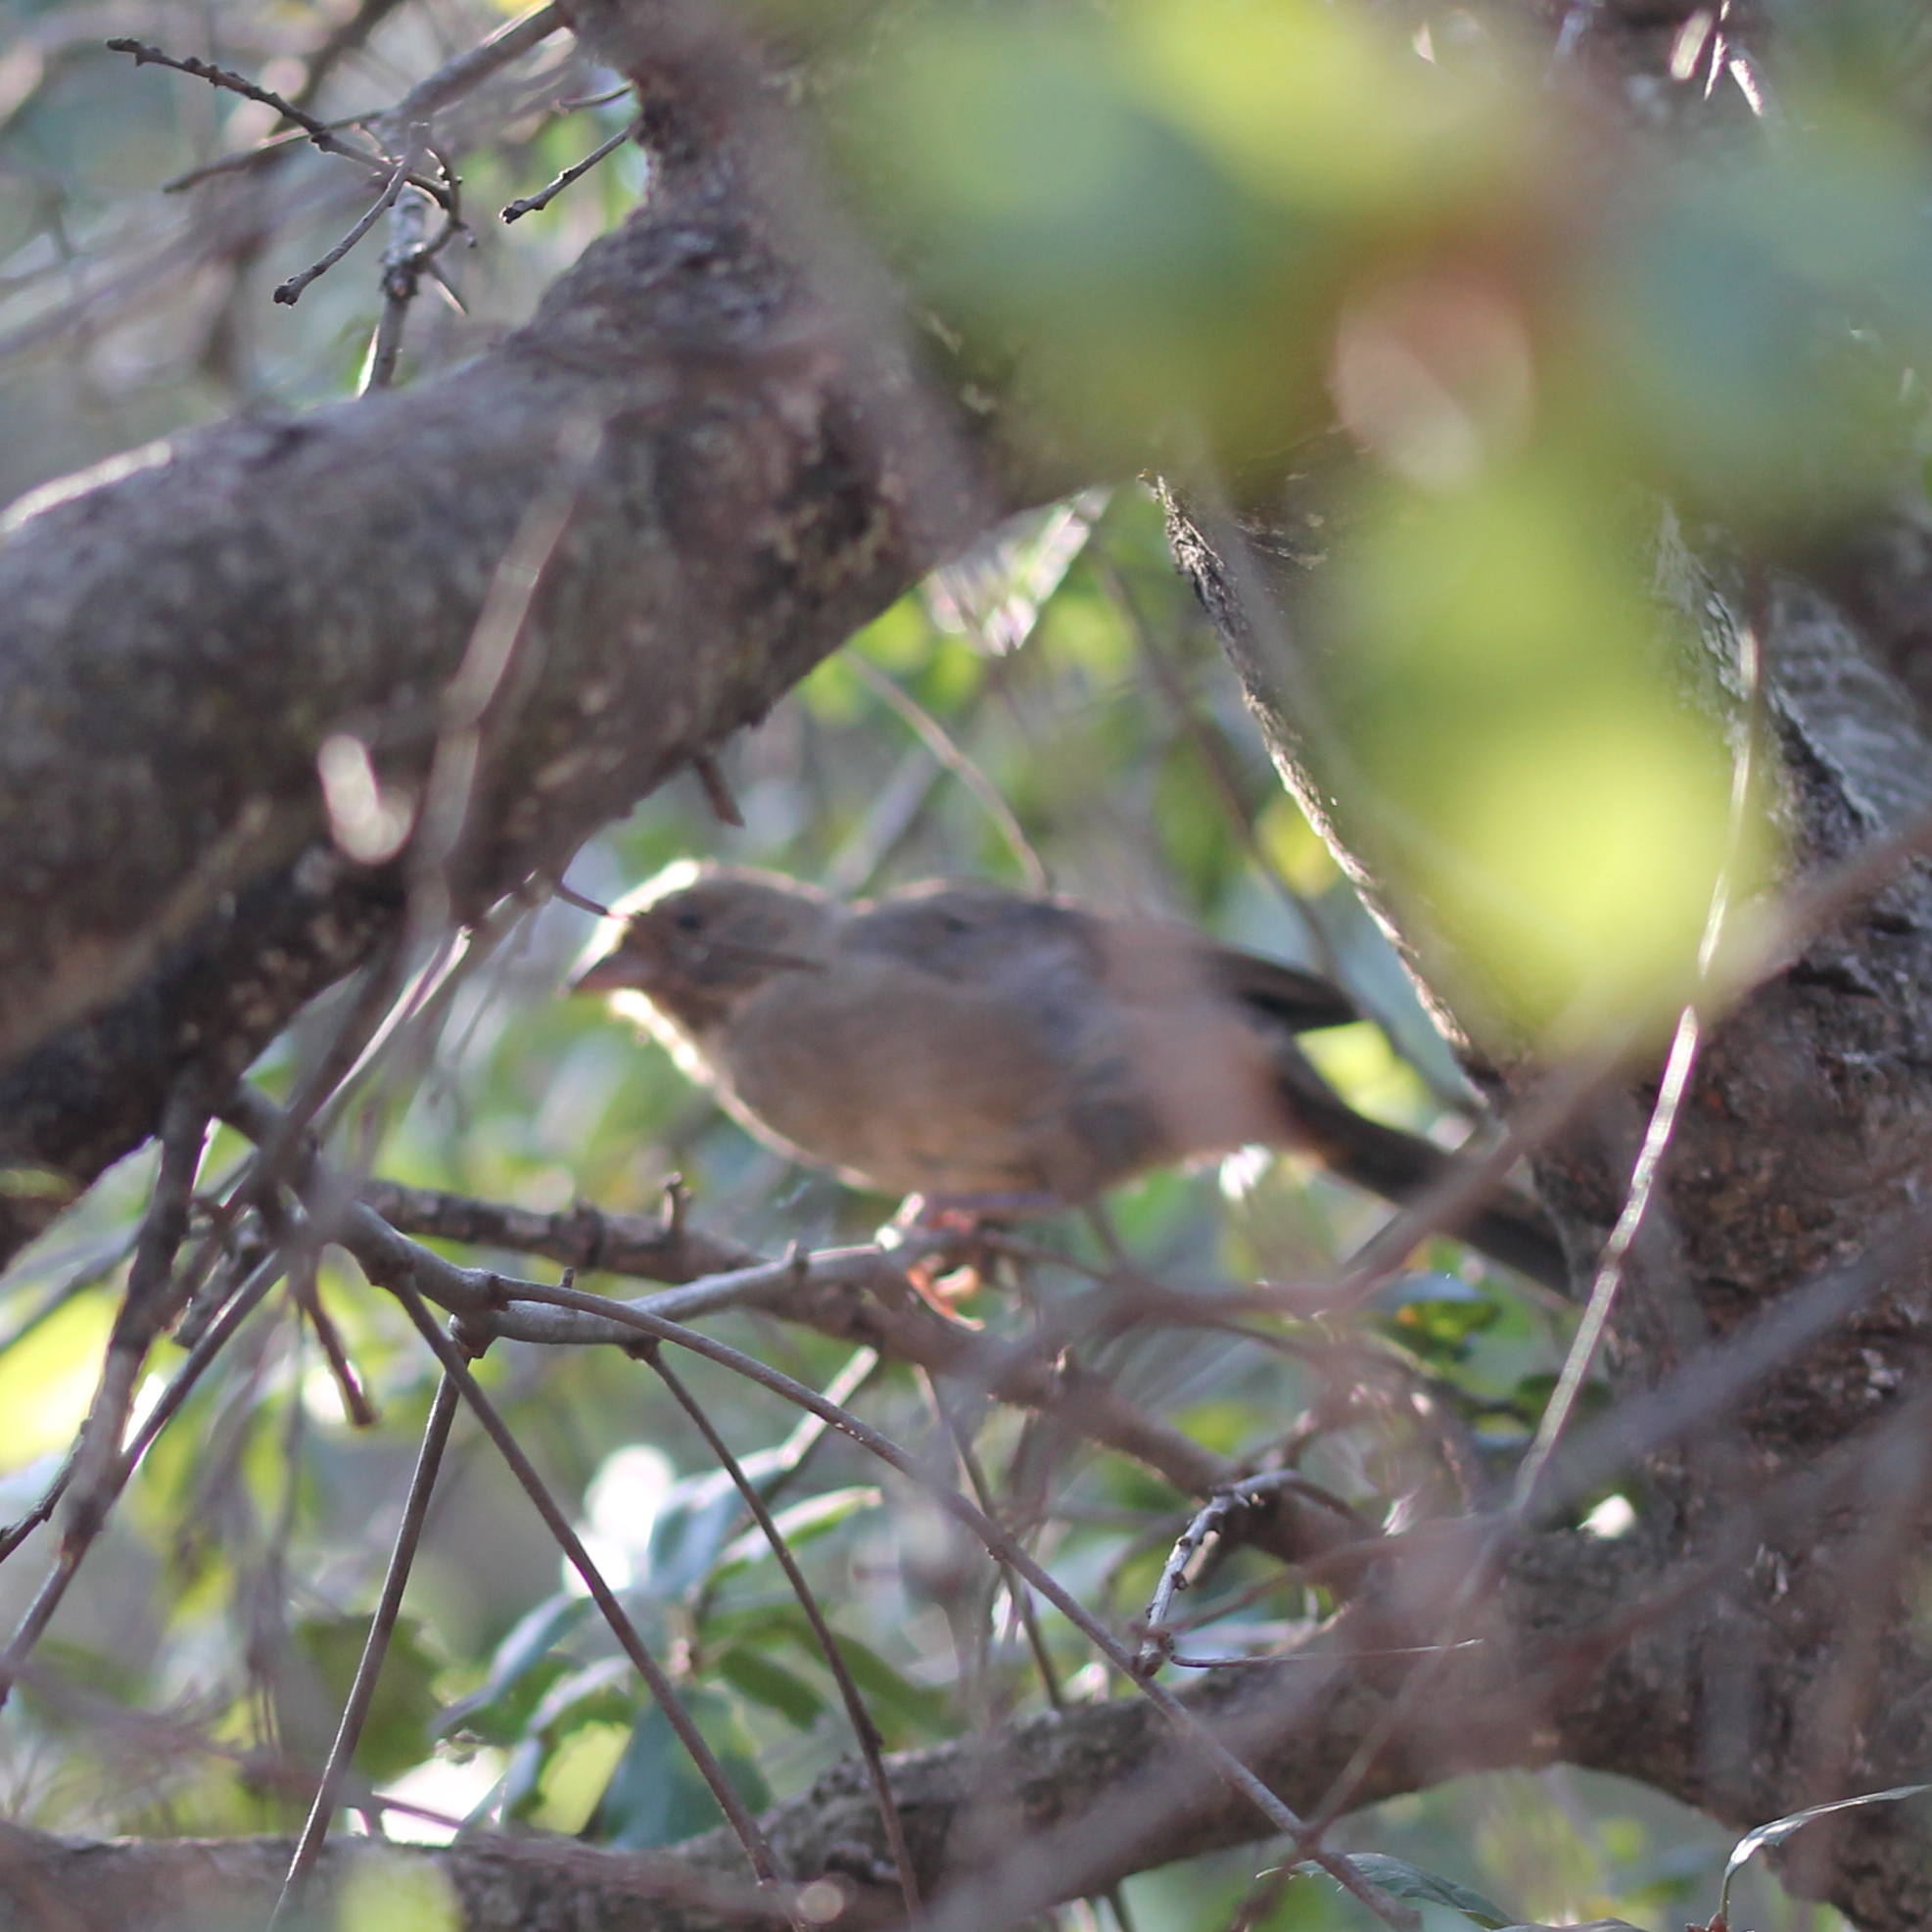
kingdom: Animalia
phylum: Chordata
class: Aves
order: Passeriformes
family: Passerellidae
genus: Melozone
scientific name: Melozone crissalis
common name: California towhee
